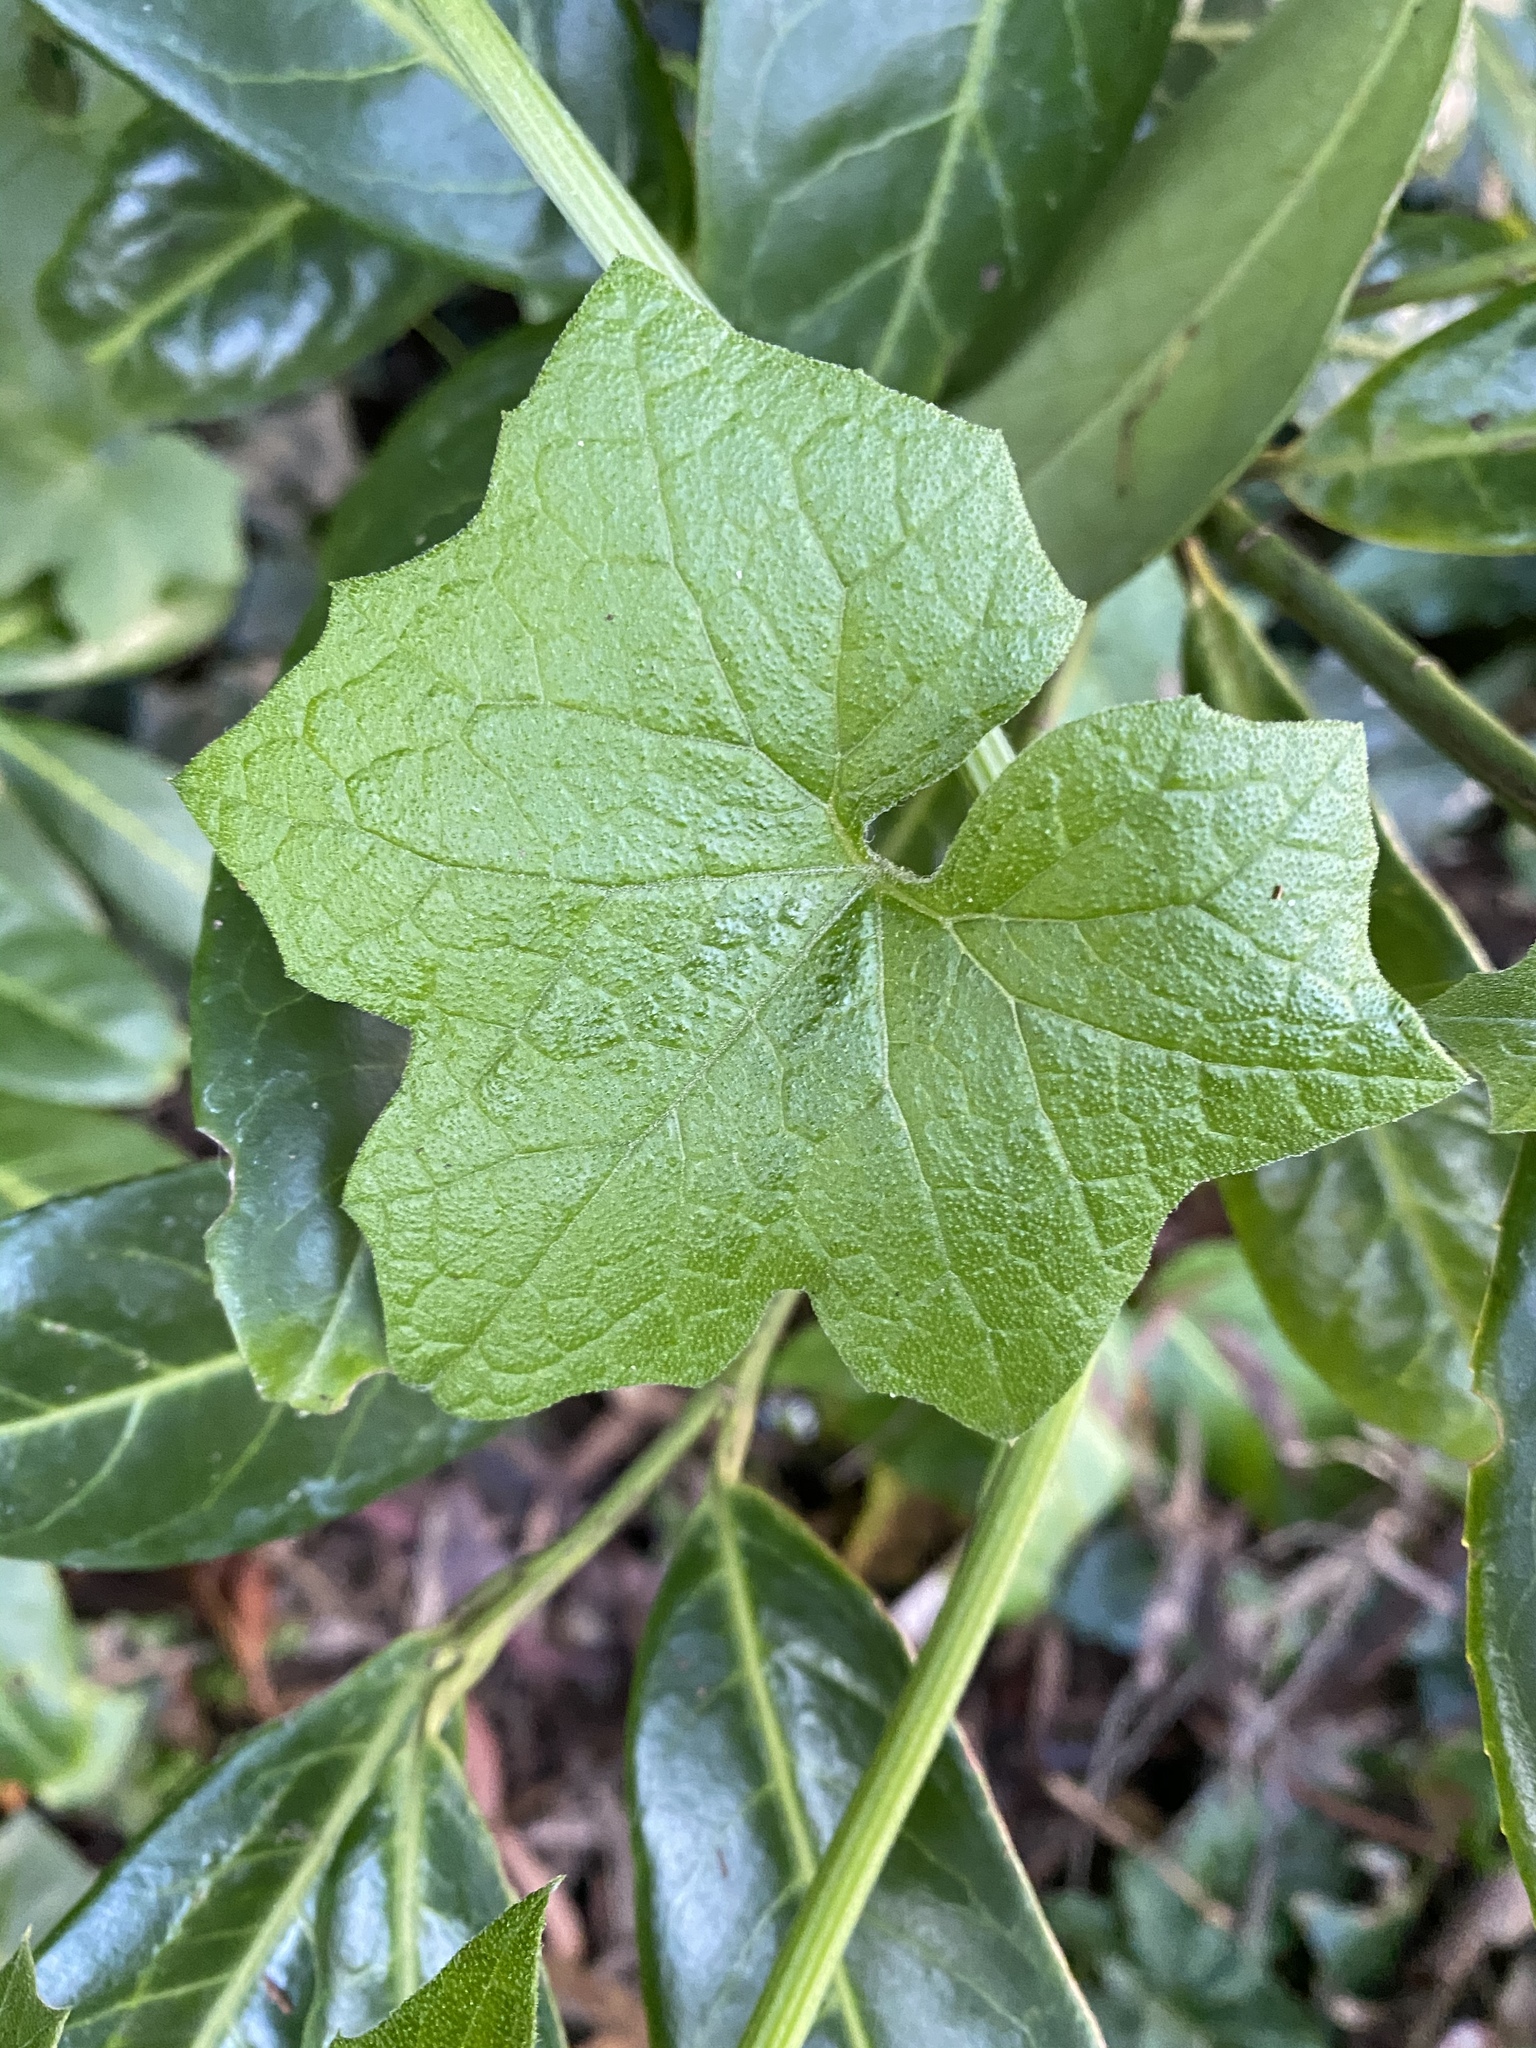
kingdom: Plantae
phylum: Tracheophyta
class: Magnoliopsida
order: Cucurbitales
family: Cucurbitaceae
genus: Marah
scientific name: Marah fabacea
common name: California manroot
